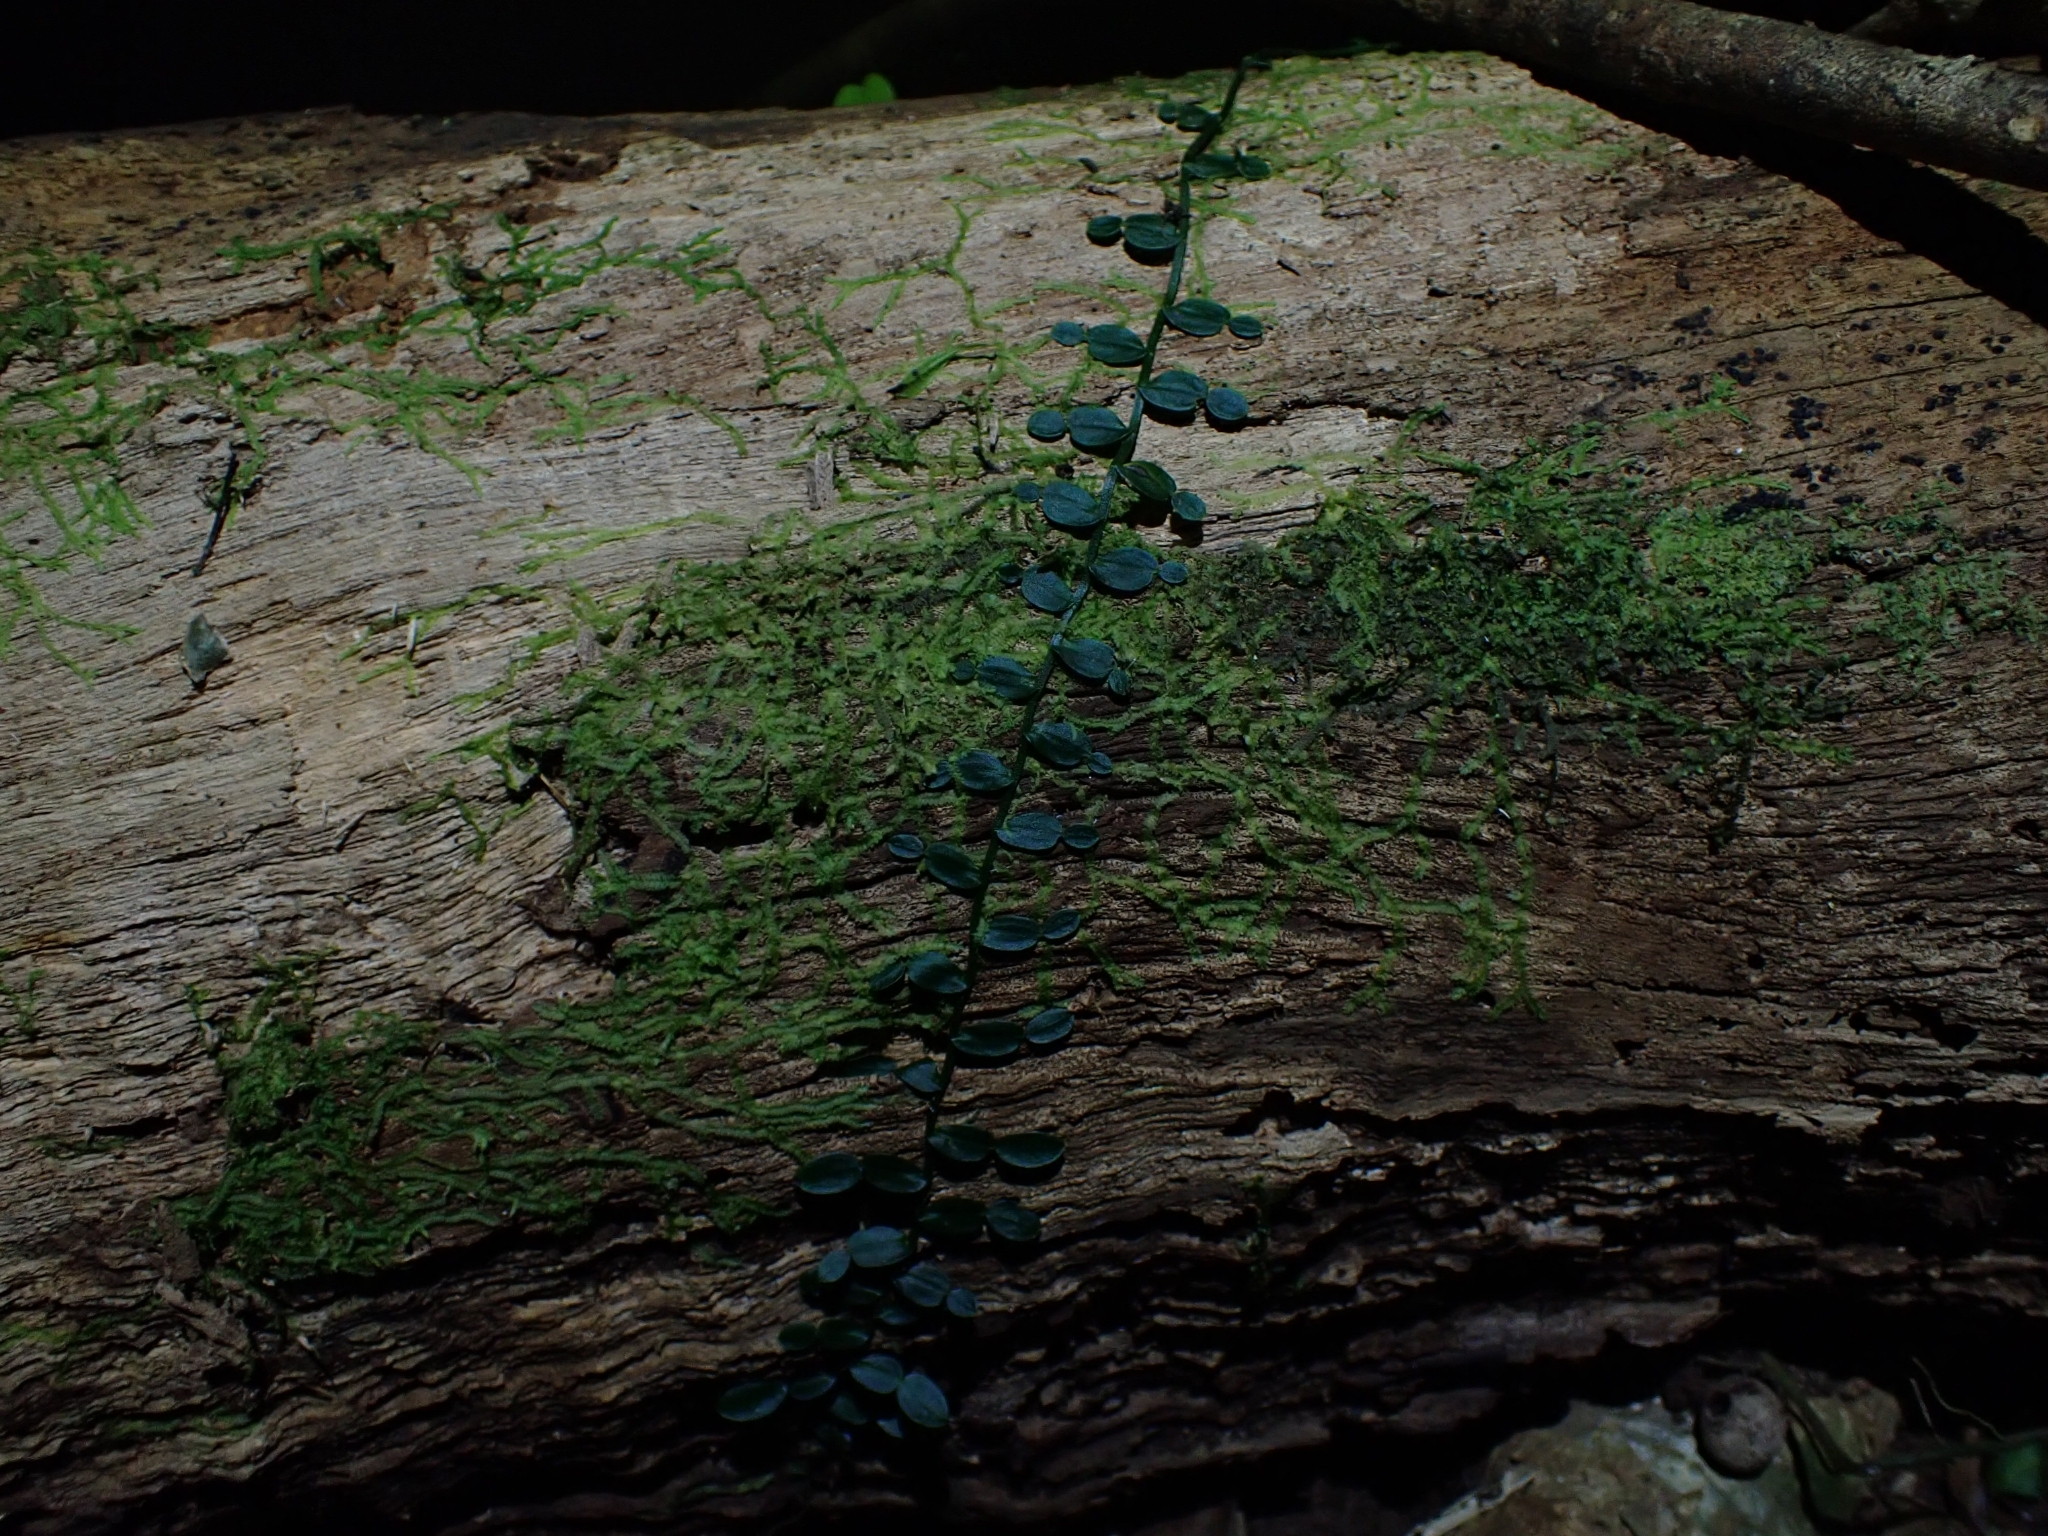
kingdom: Plantae
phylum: Tracheophyta
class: Liliopsida
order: Alismatales
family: Araceae
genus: Pothos
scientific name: Pothos longipes
